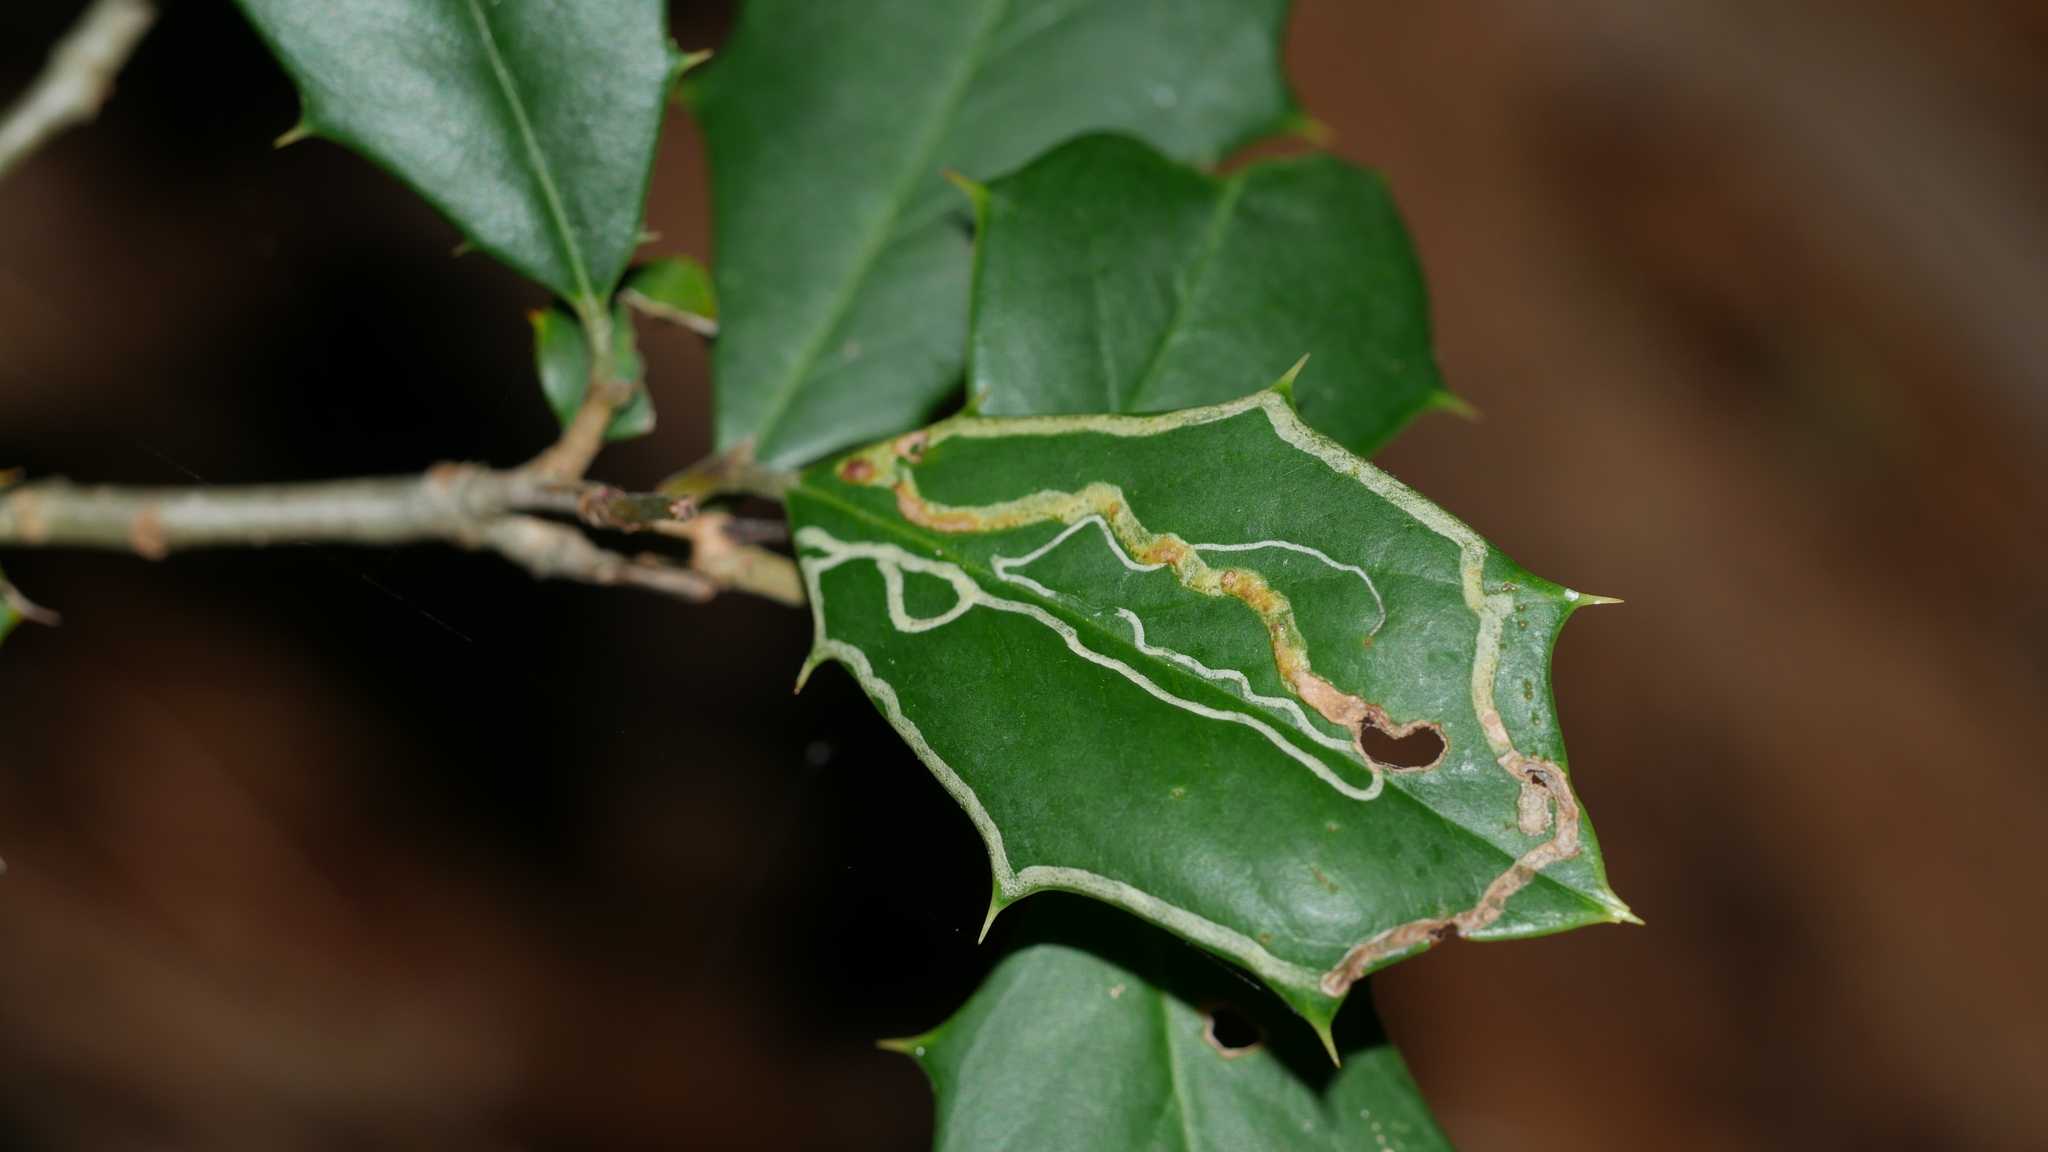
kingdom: Animalia
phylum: Arthropoda
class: Insecta
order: Diptera
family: Agromyzidae
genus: Phytomyza
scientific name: Phytomyza opacae
